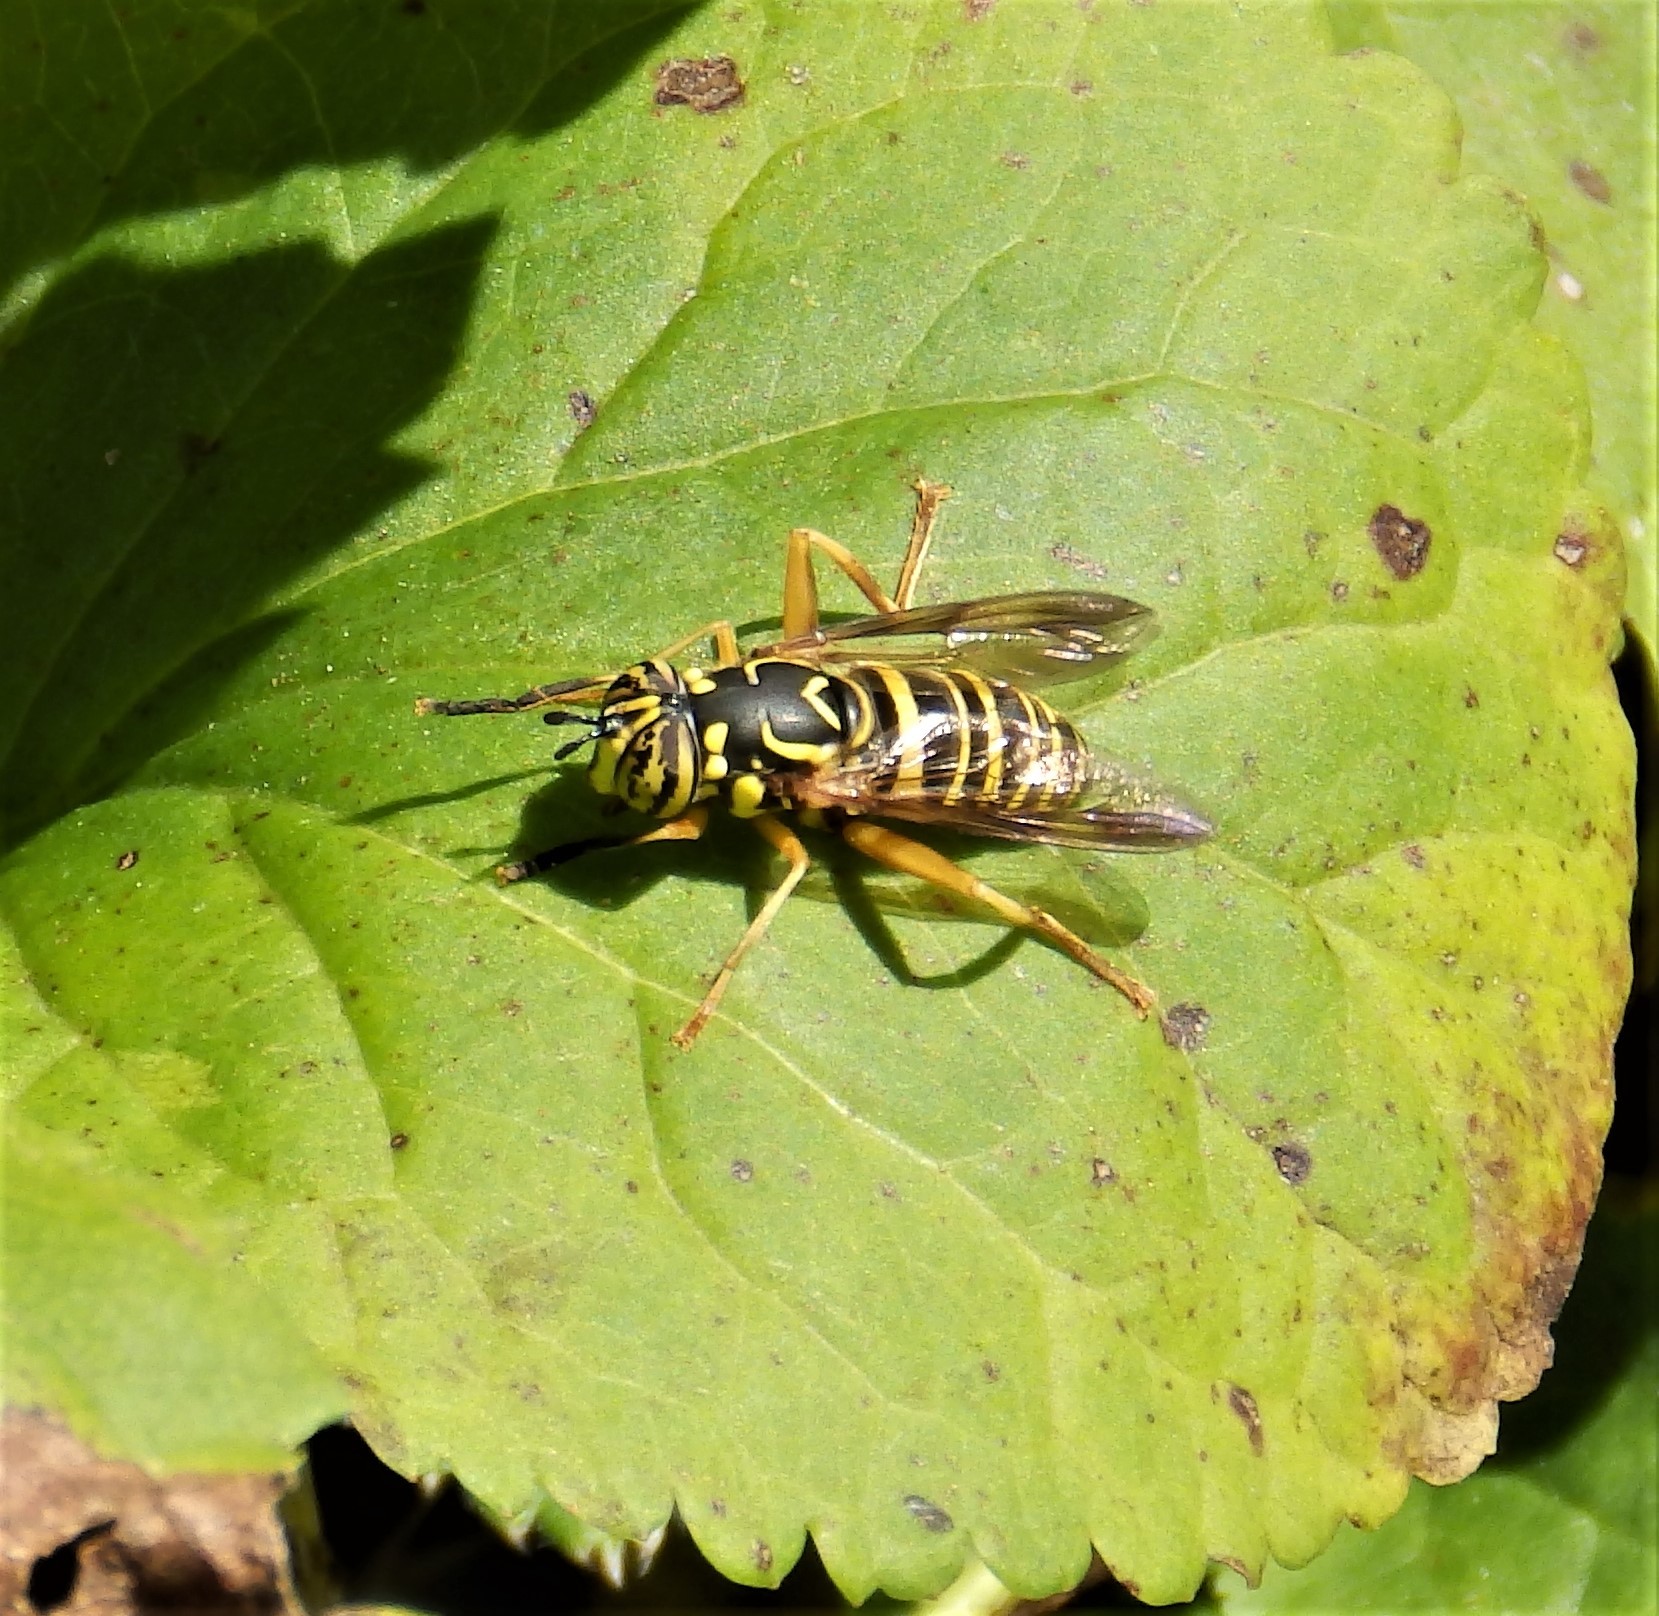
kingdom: Animalia
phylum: Arthropoda
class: Insecta
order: Diptera
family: Syrphidae
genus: Spilomyia
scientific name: Spilomyia longicornis
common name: Eastern hornet fly
